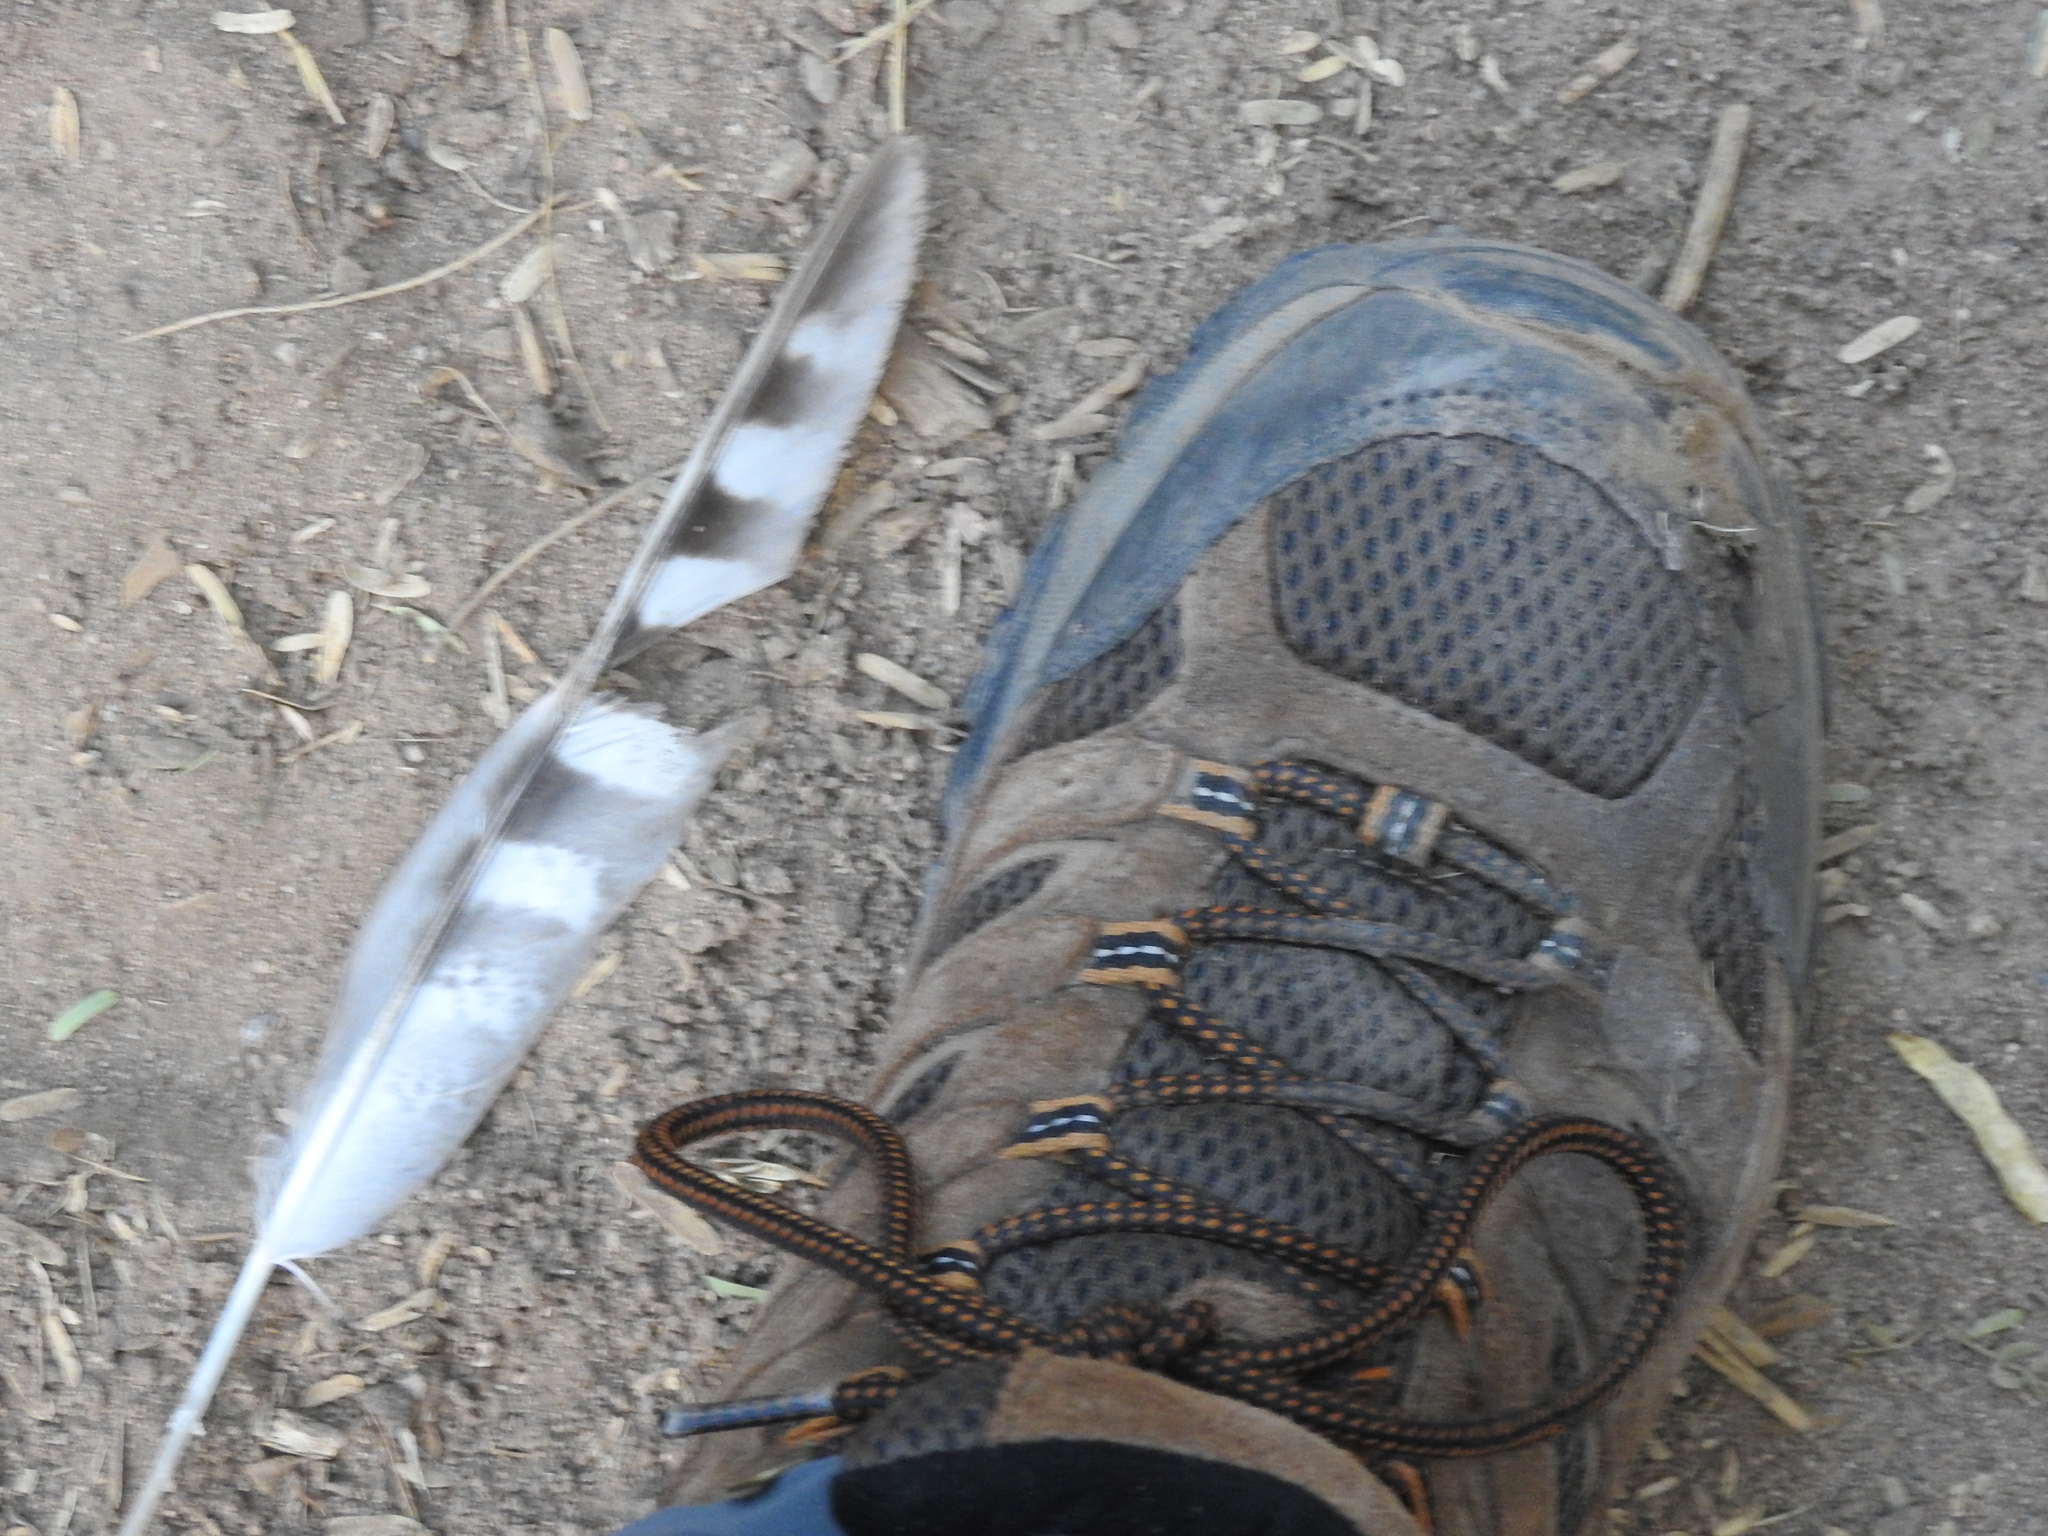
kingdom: Animalia
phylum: Chordata
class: Aves
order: Accipitriformes
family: Accipitridae
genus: Accipiter
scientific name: Accipiter cooperii
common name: Cooper's hawk
